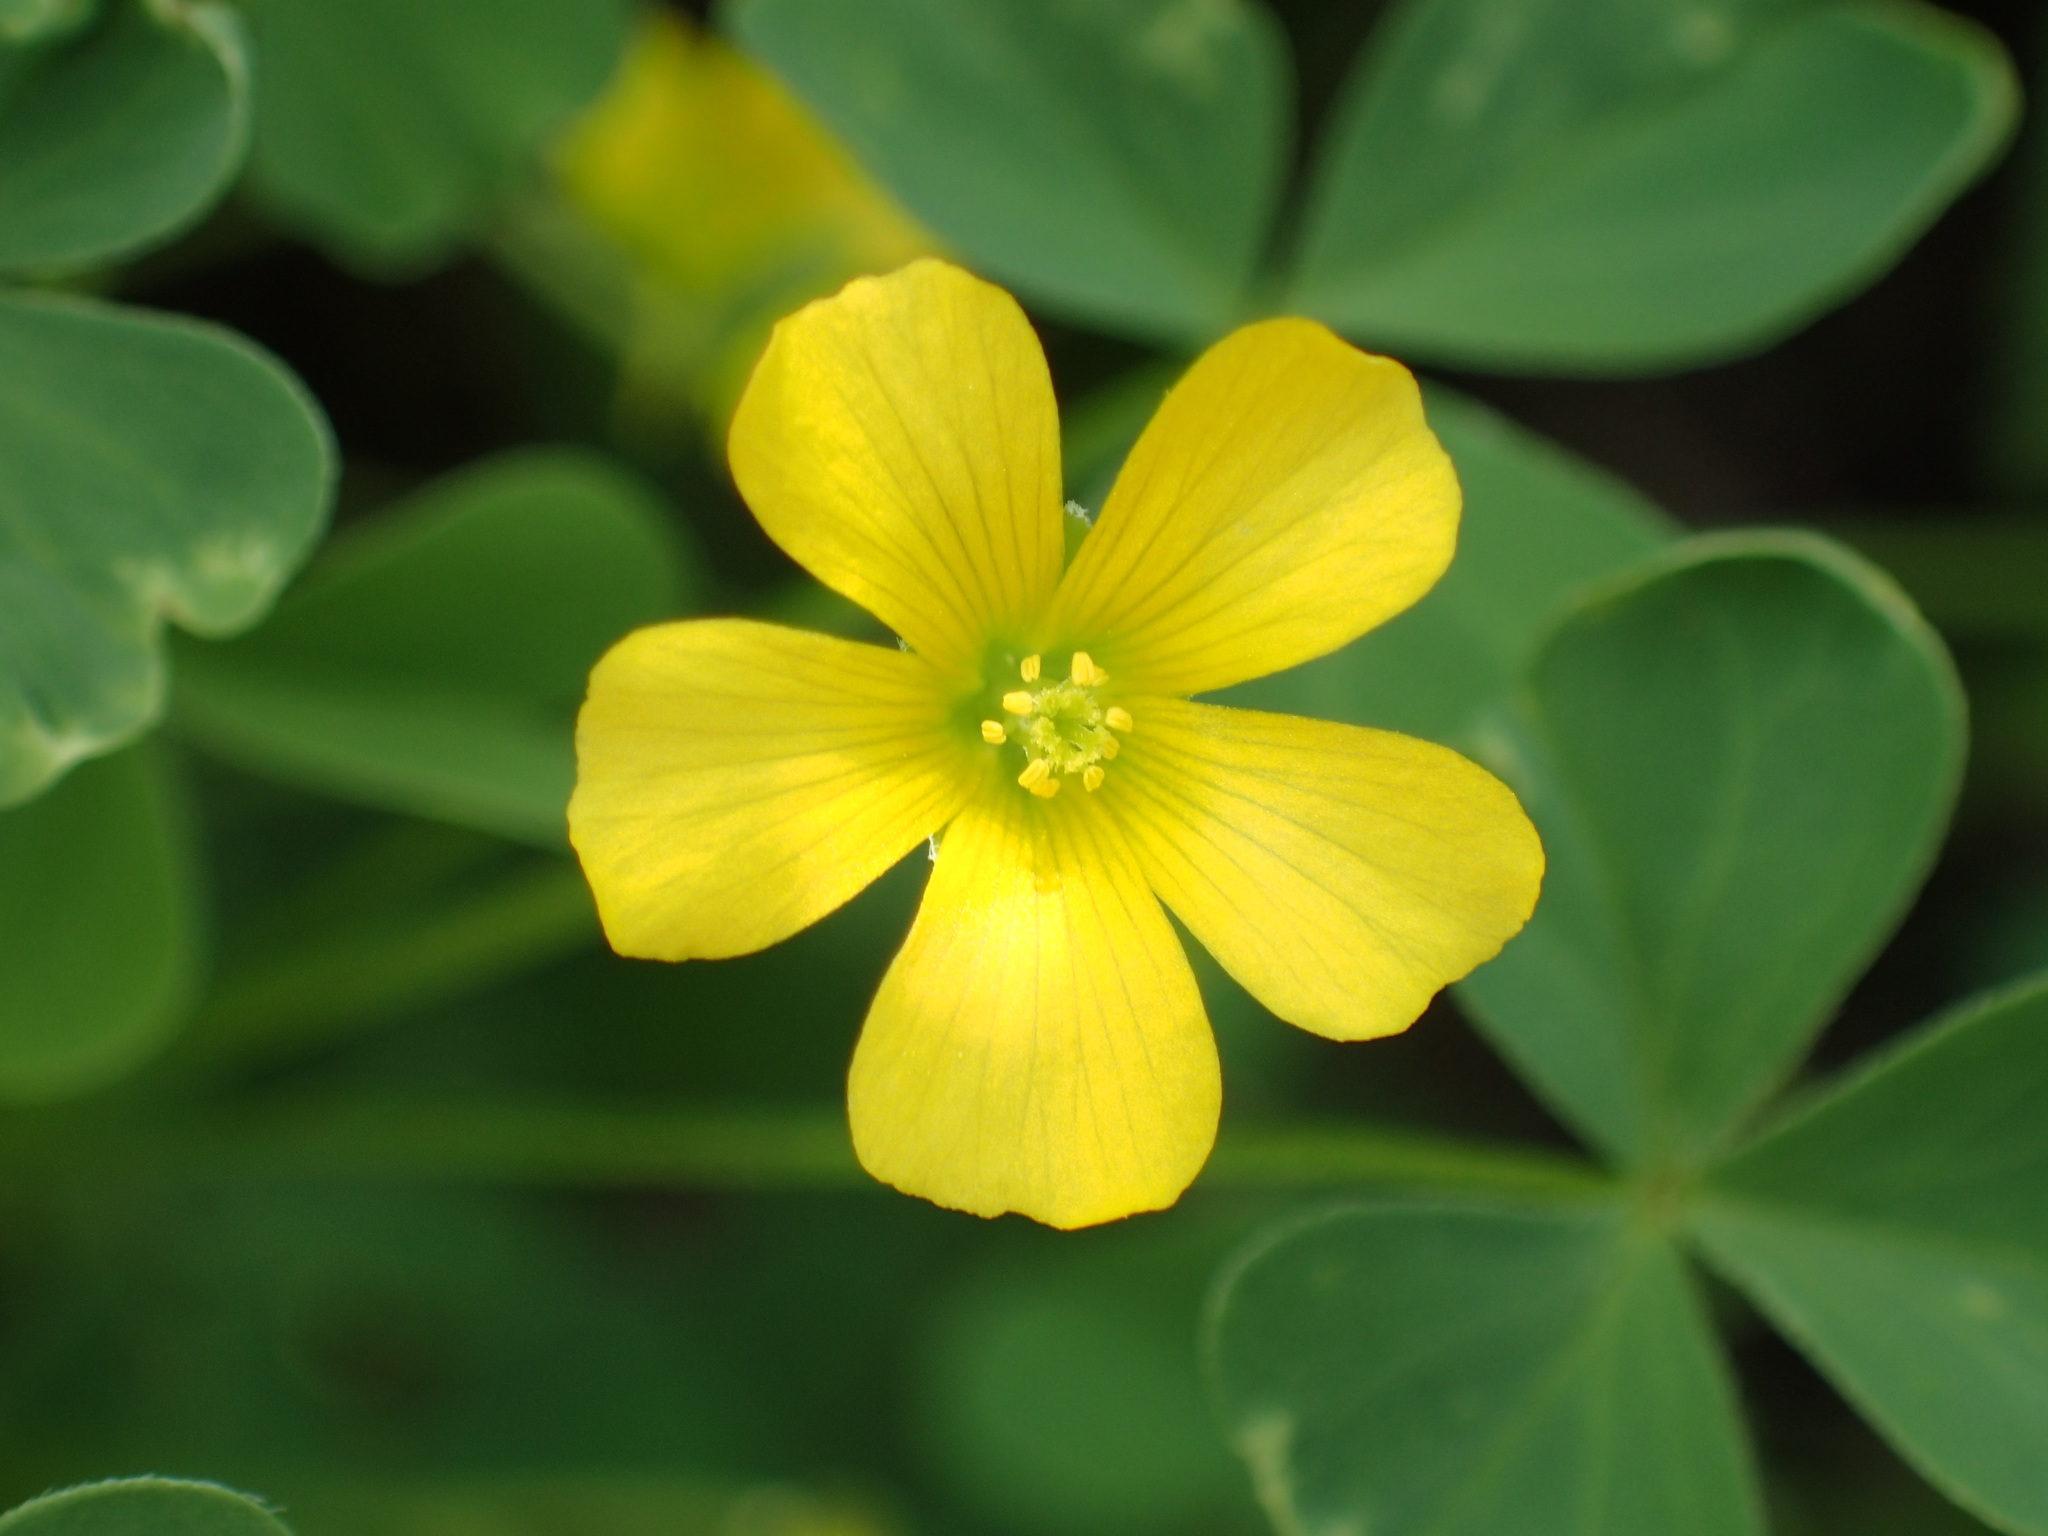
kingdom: Plantae
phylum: Tracheophyta
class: Magnoliopsida
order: Oxalidales
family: Oxalidaceae
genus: Oxalis
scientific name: Oxalis
